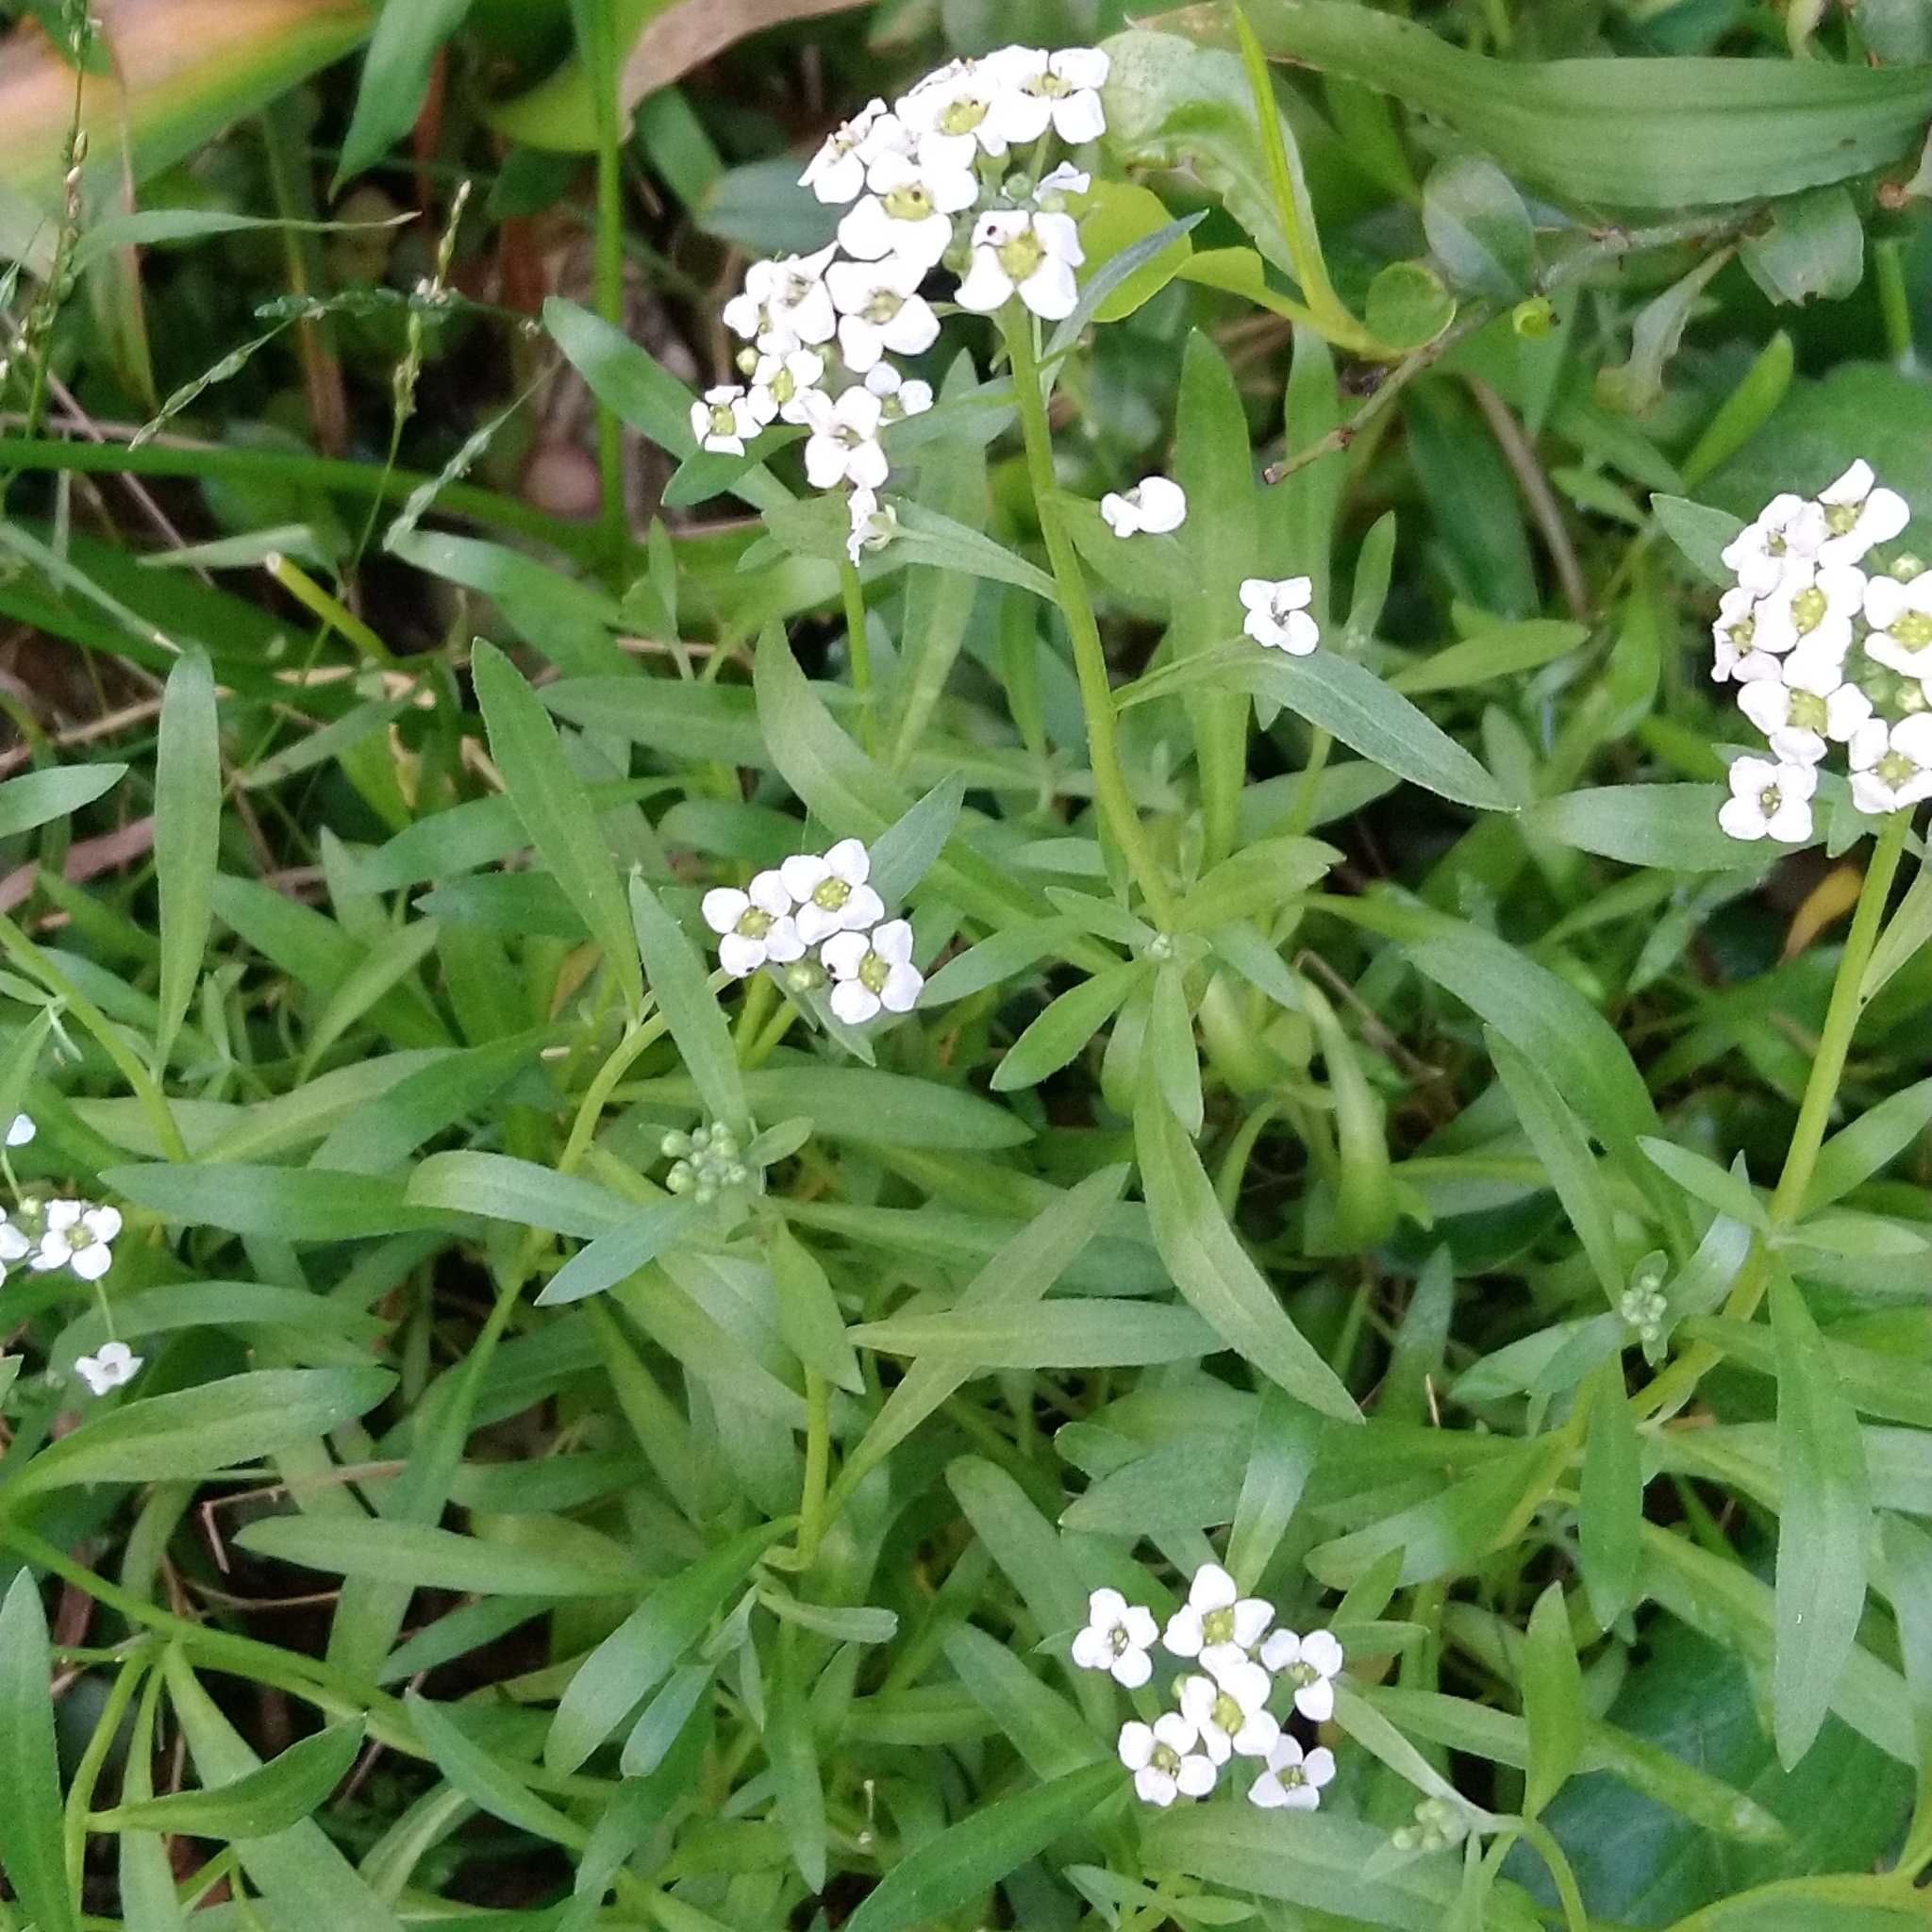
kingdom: Plantae
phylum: Tracheophyta
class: Magnoliopsida
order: Brassicales
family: Brassicaceae
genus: Lobularia
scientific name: Lobularia maritima
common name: Sweet alison
